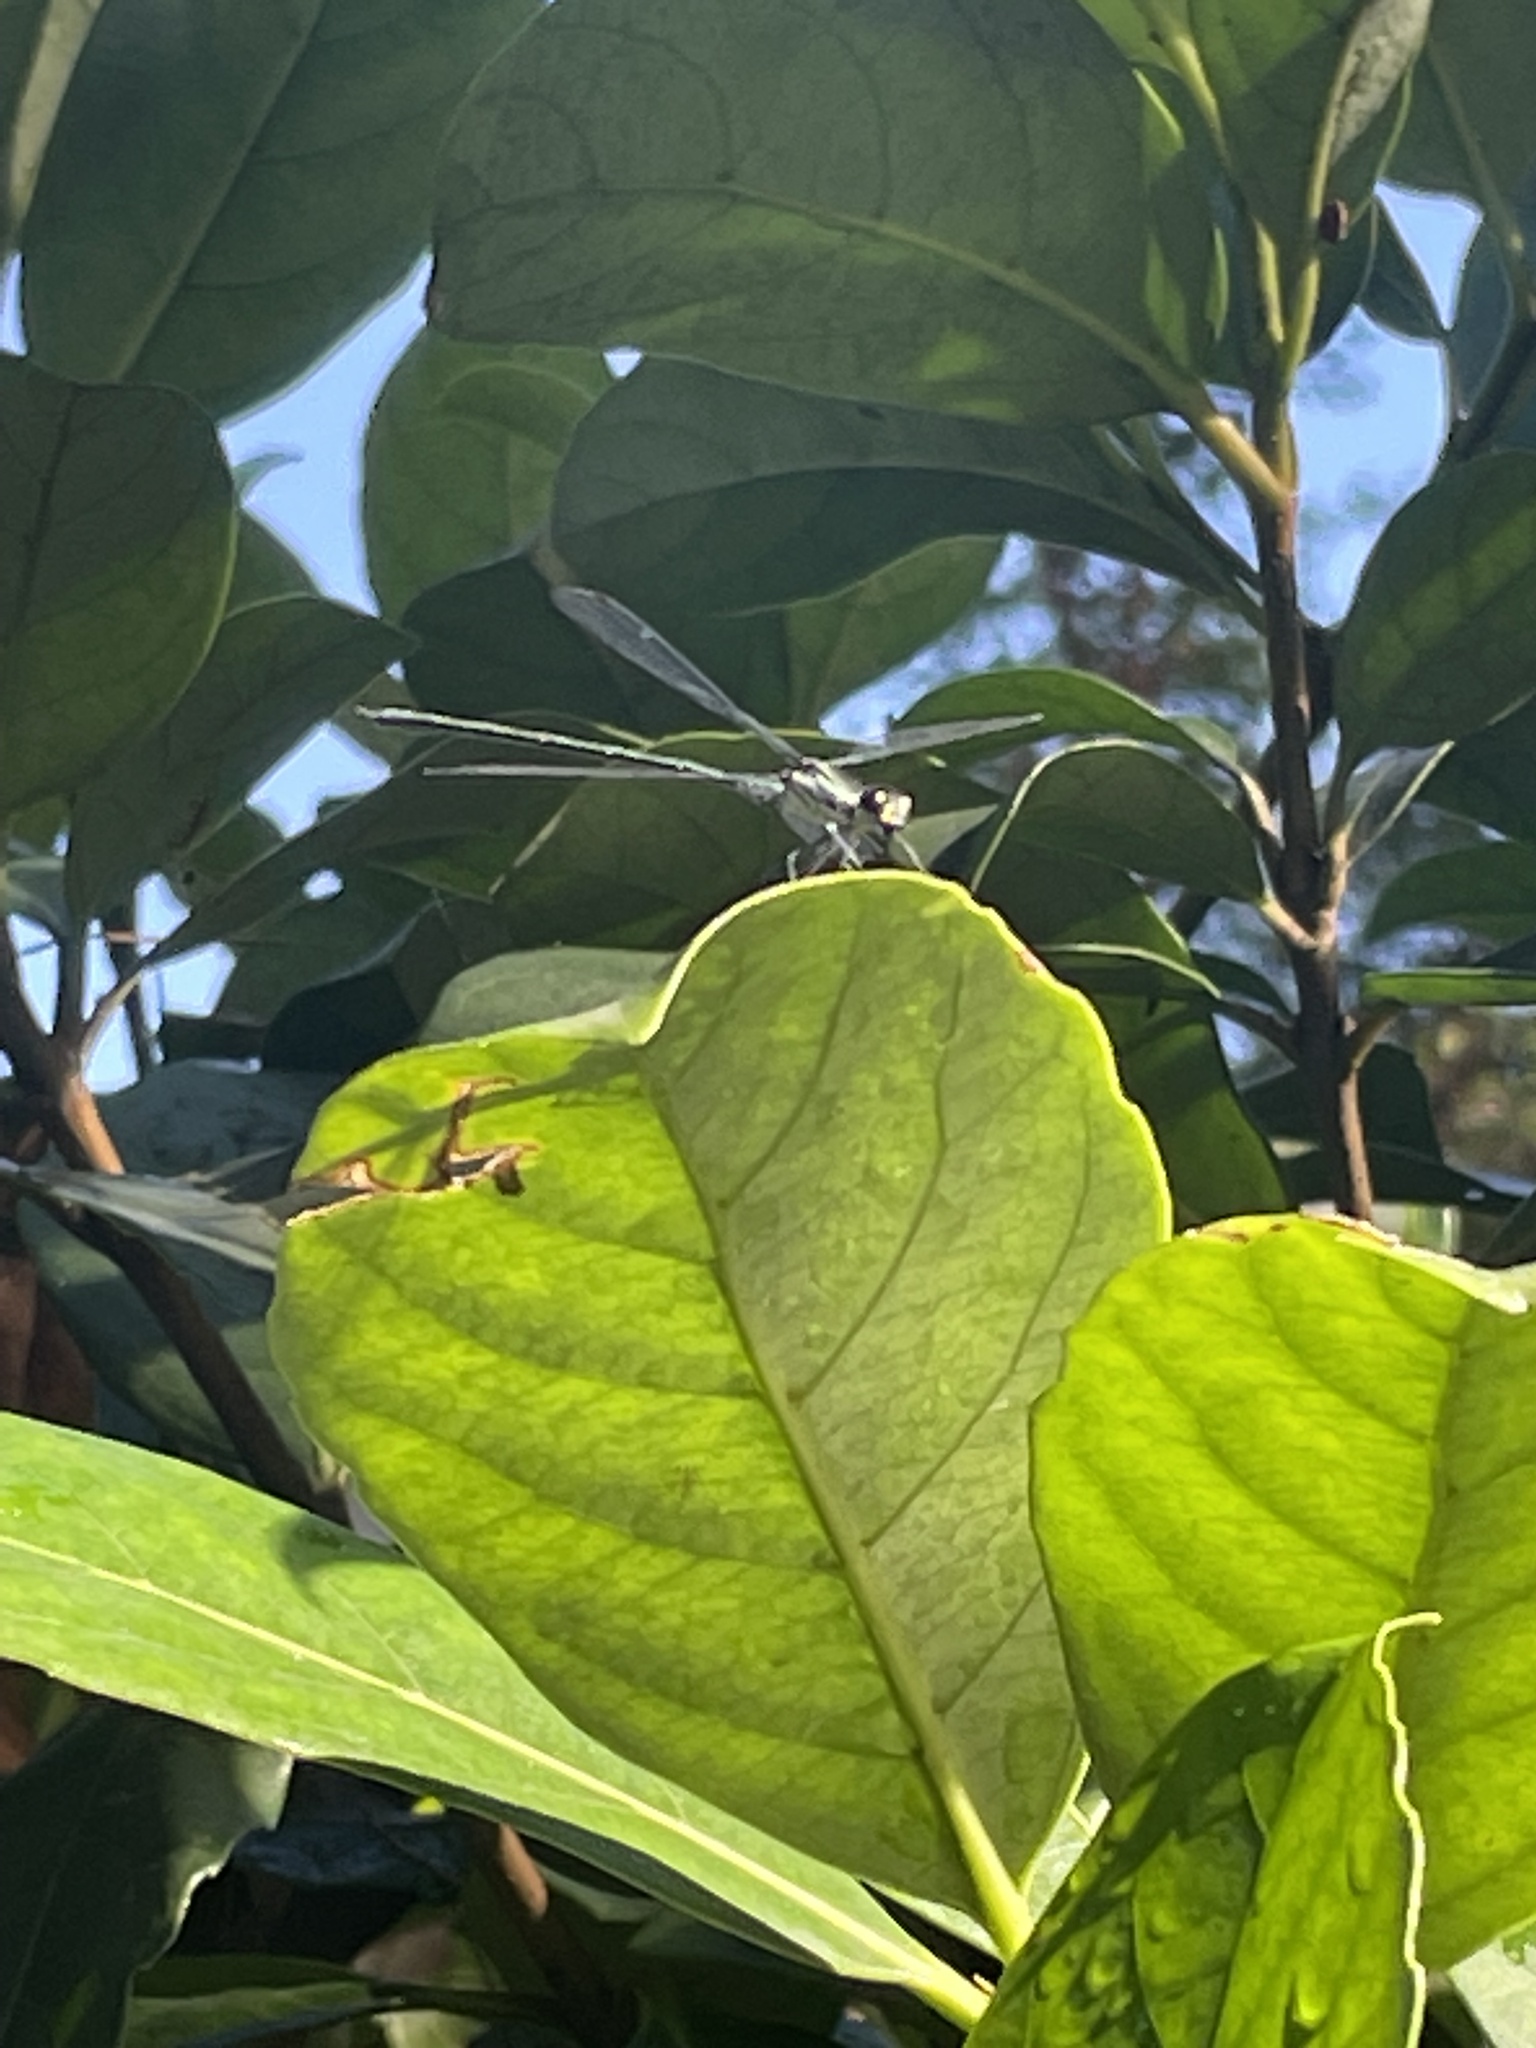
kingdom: Animalia
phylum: Arthropoda
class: Insecta
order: Odonata
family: Argiolestidae
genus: Austroargiolestes
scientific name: Austroargiolestes icteromelas
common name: Common flatwing
